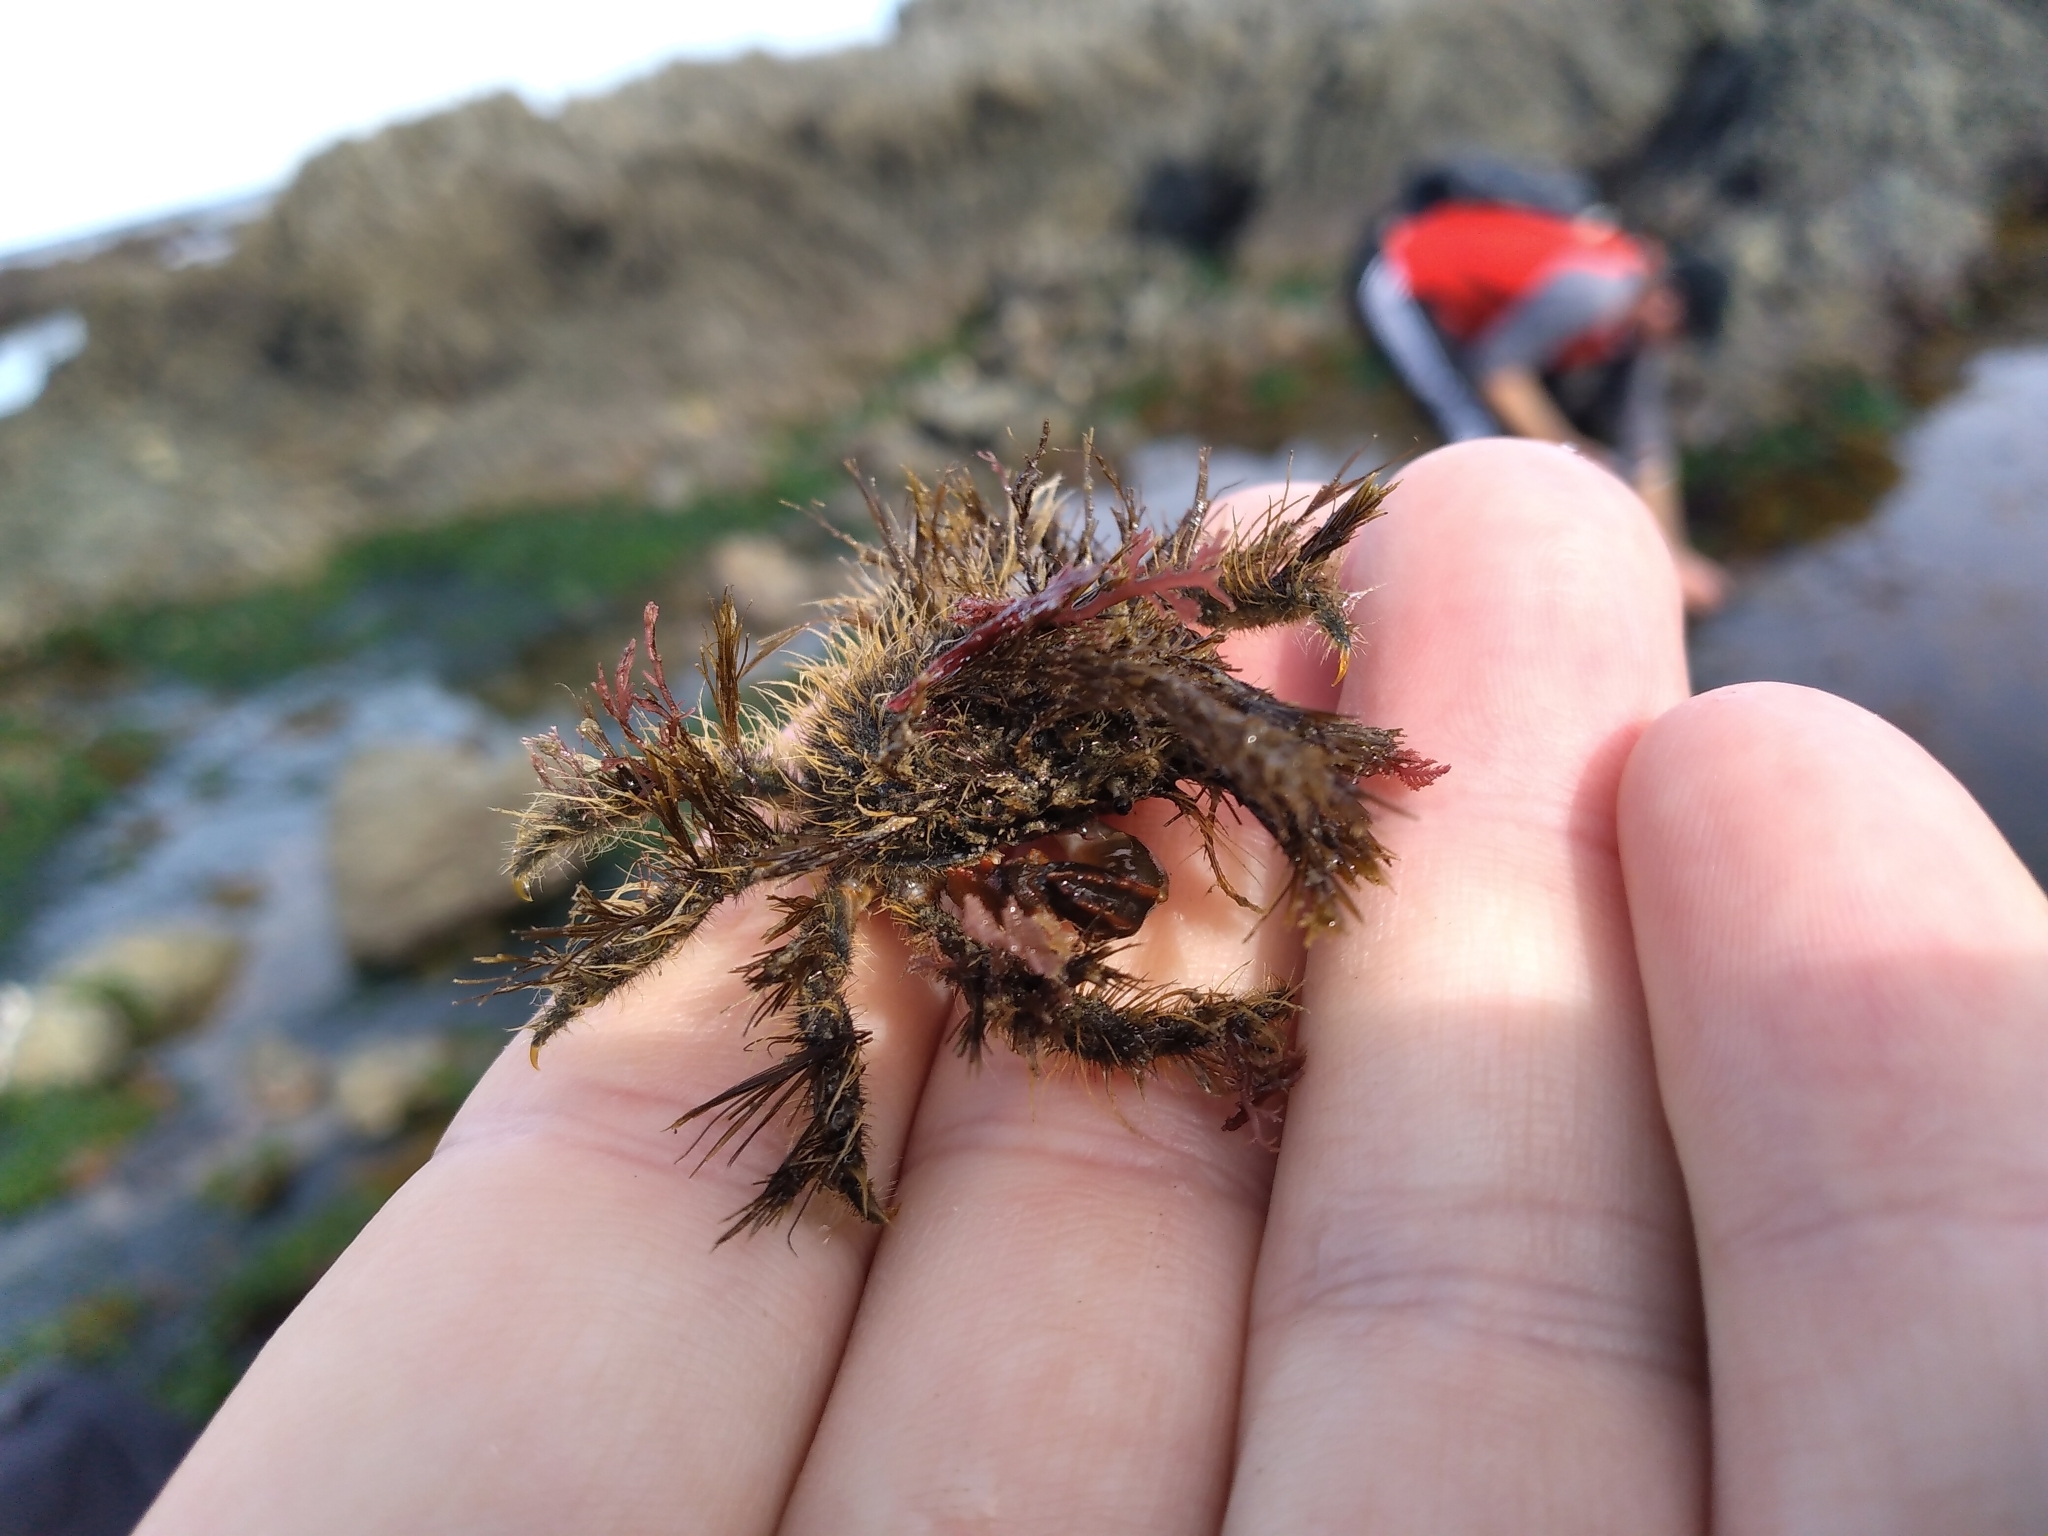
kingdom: Animalia
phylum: Arthropoda
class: Malacostraca
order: Decapoda
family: Majidae
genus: Notomithrax
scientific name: Notomithrax ursus
